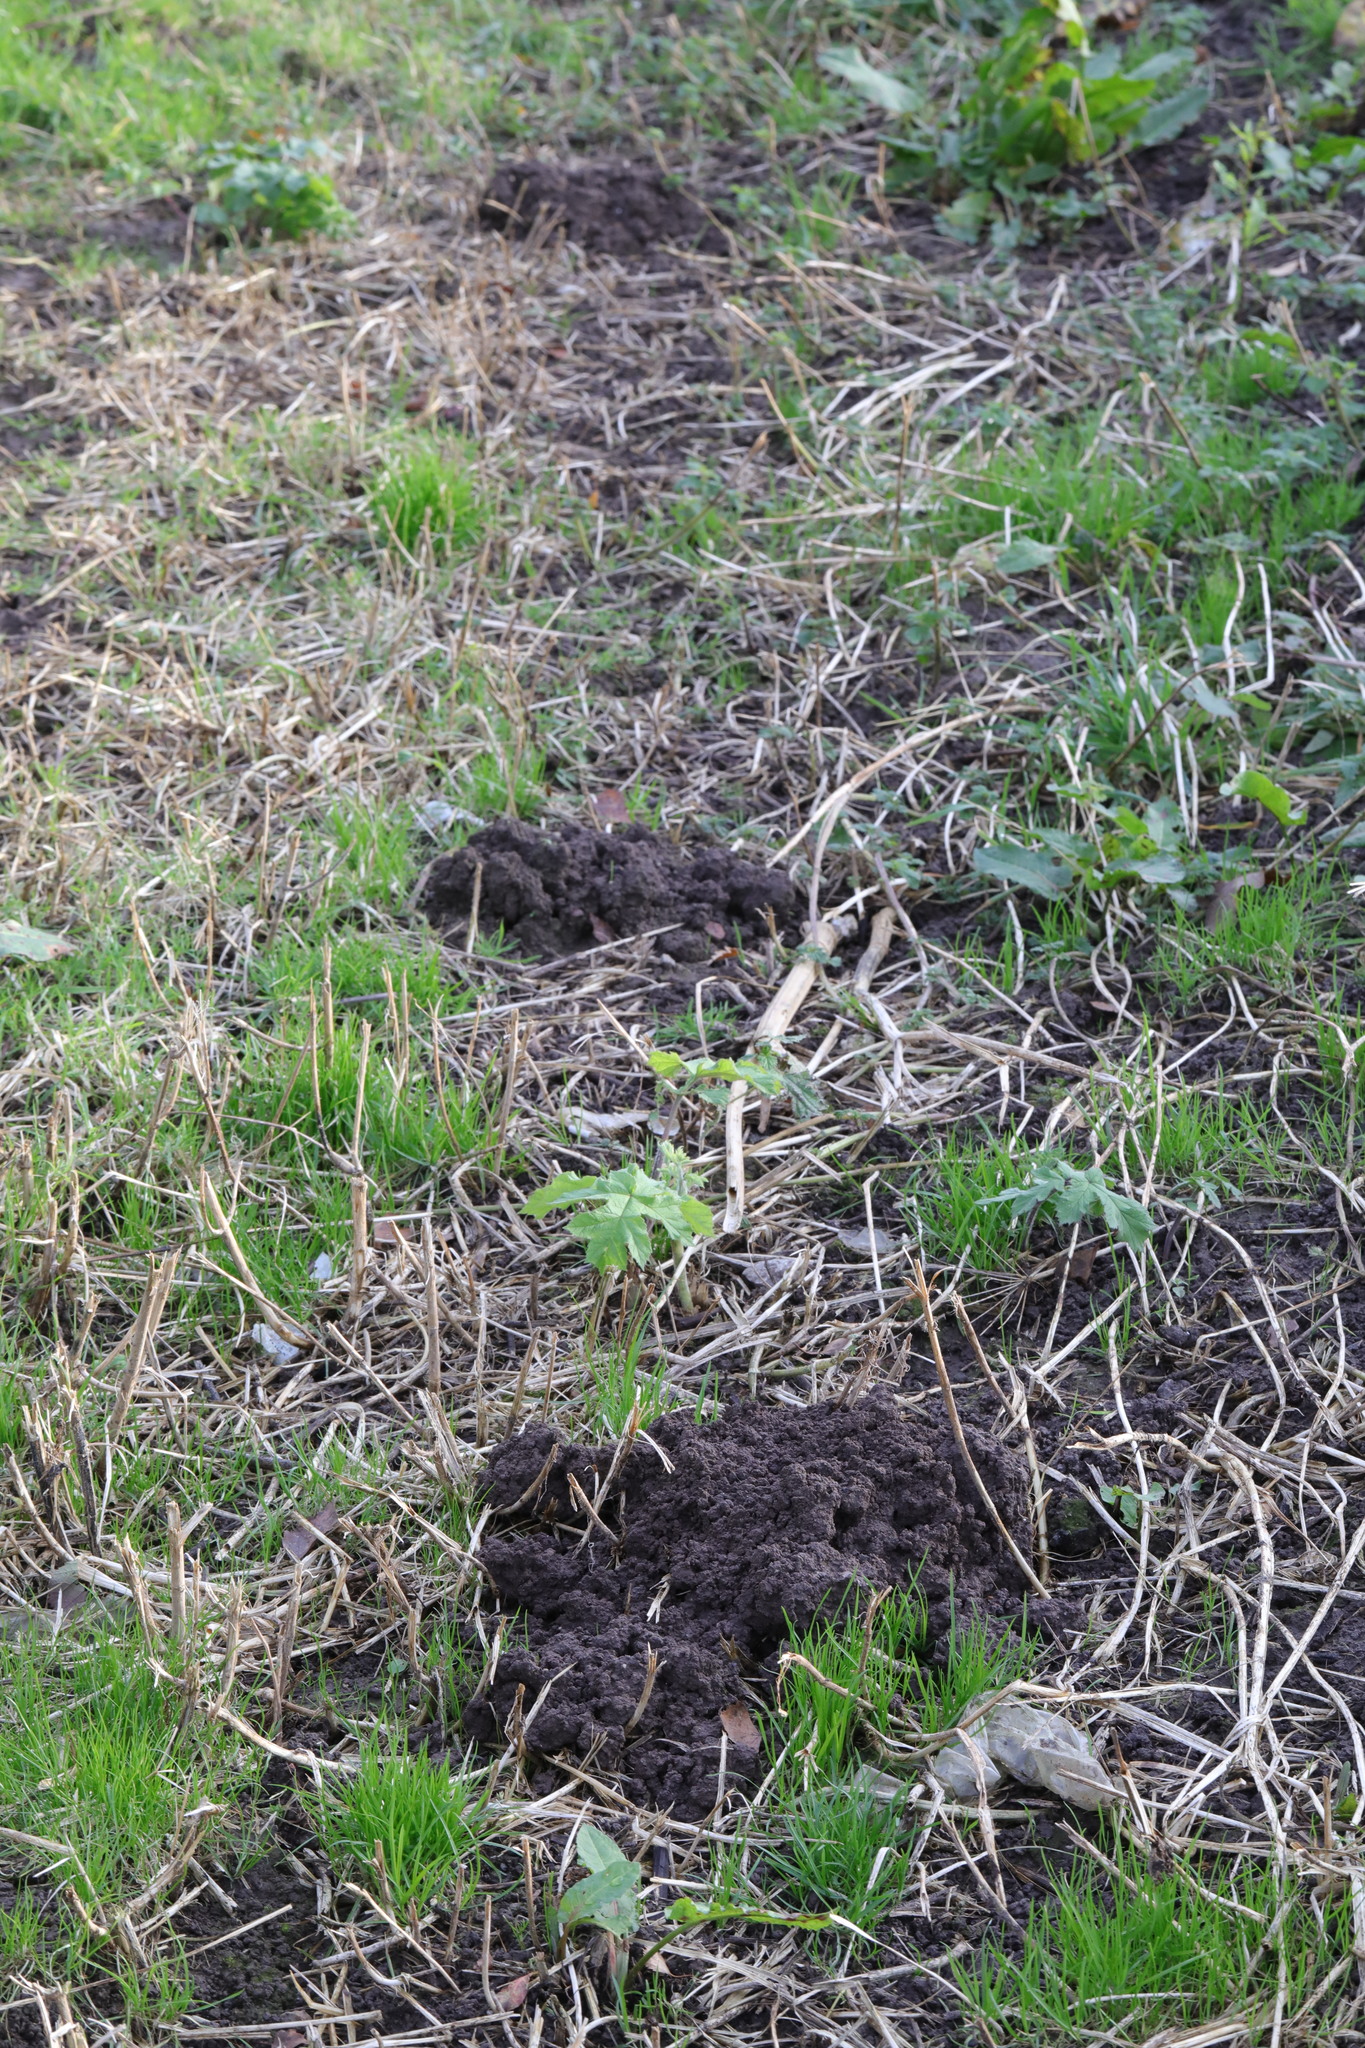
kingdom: Animalia
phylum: Chordata
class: Mammalia
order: Soricomorpha
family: Talpidae
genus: Talpa
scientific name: Talpa europaea
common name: European mole
